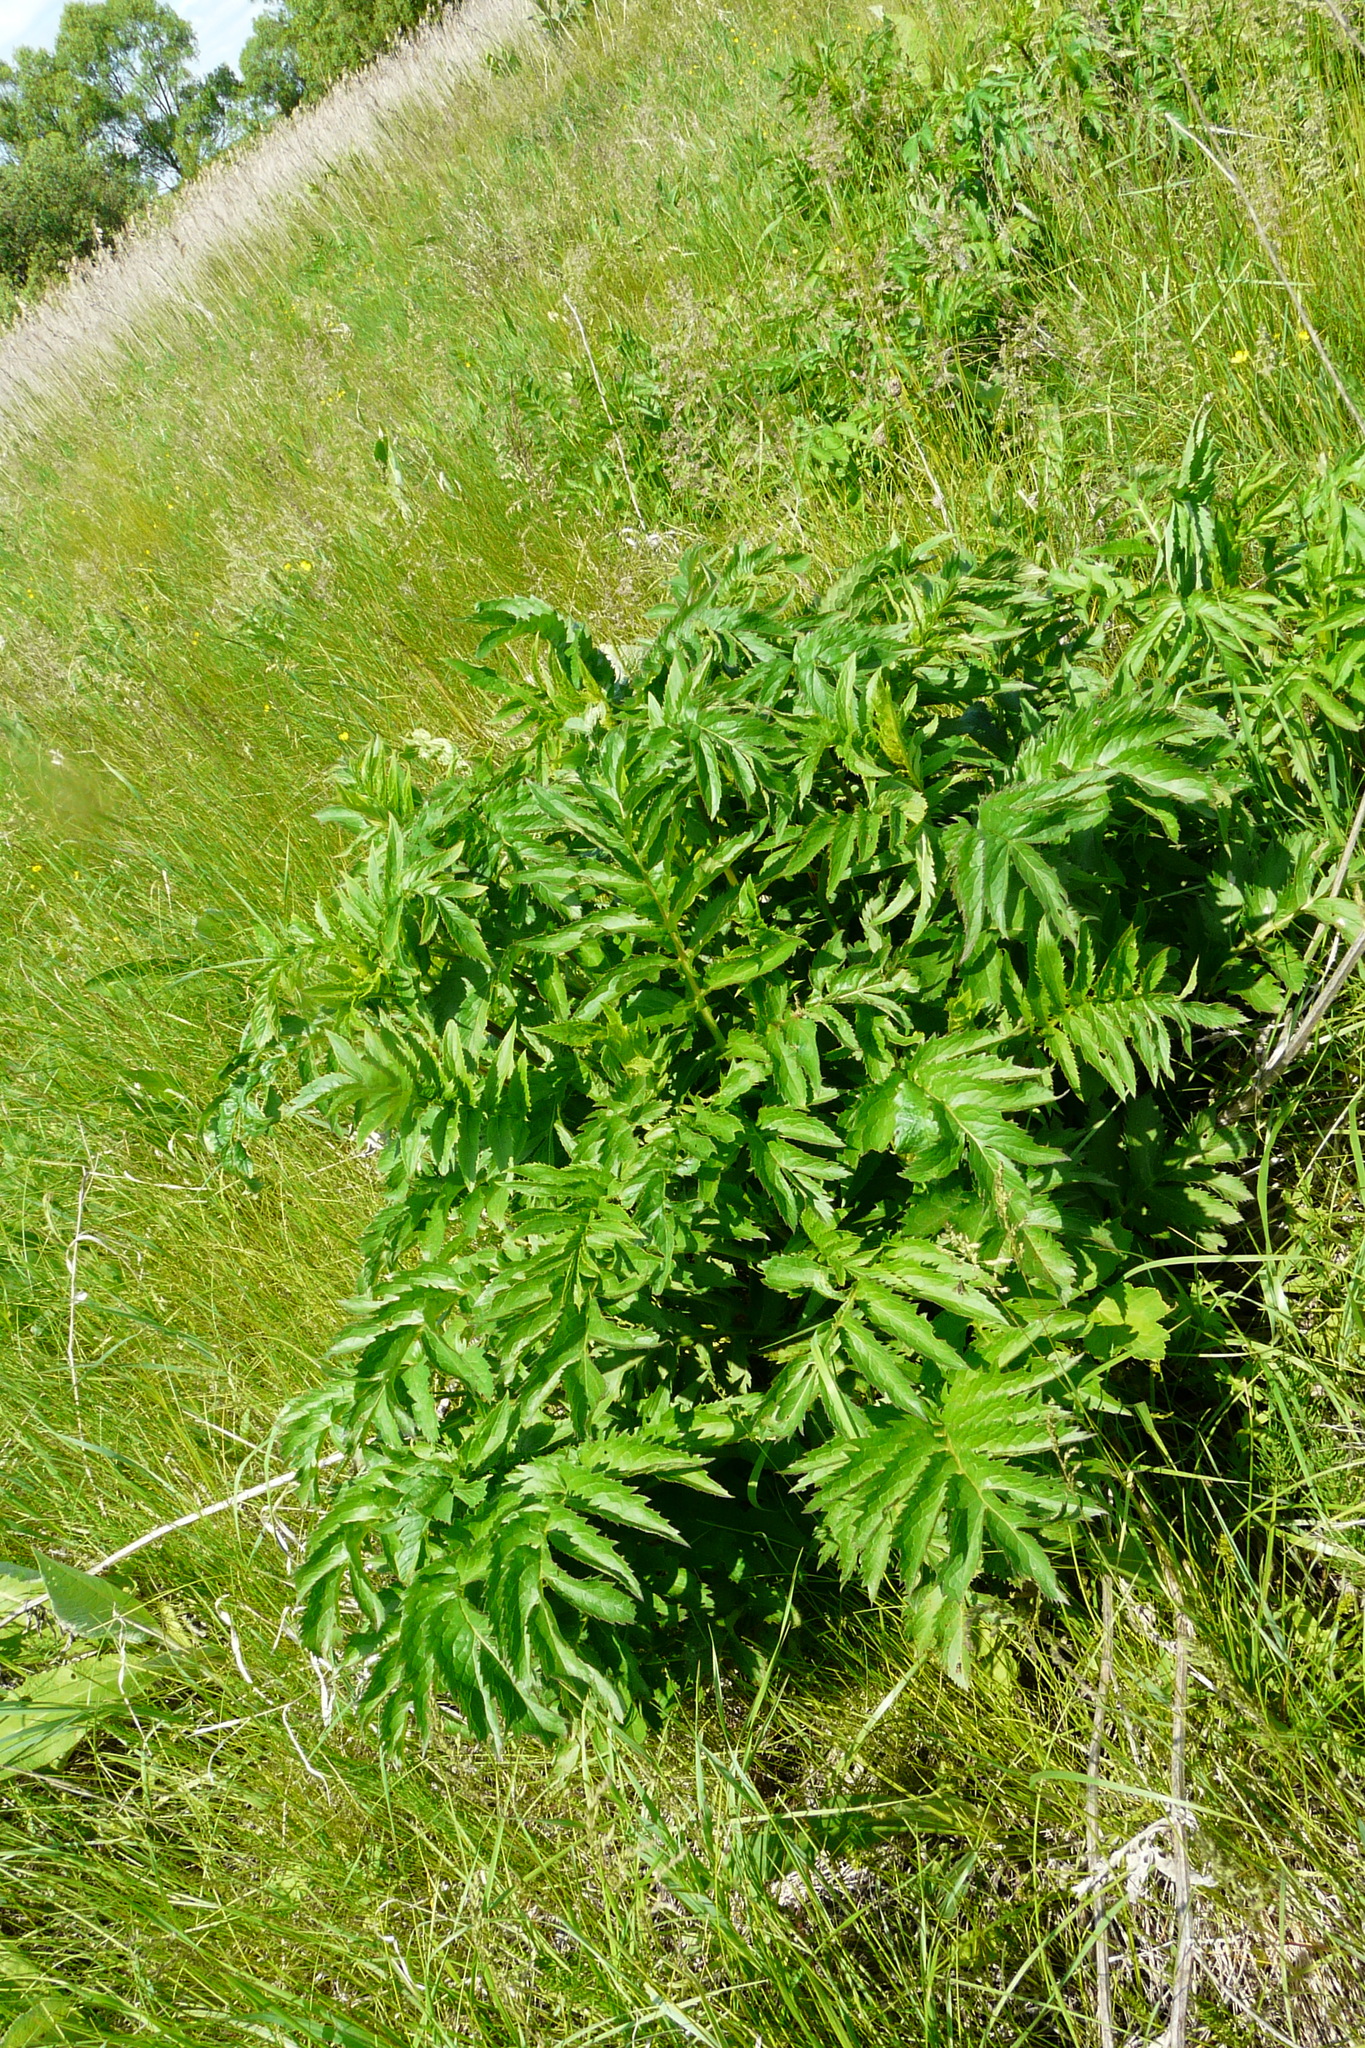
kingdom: Plantae
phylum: Tracheophyta
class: Magnoliopsida
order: Asterales
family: Asteraceae
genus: Serratula
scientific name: Serratula coronata
